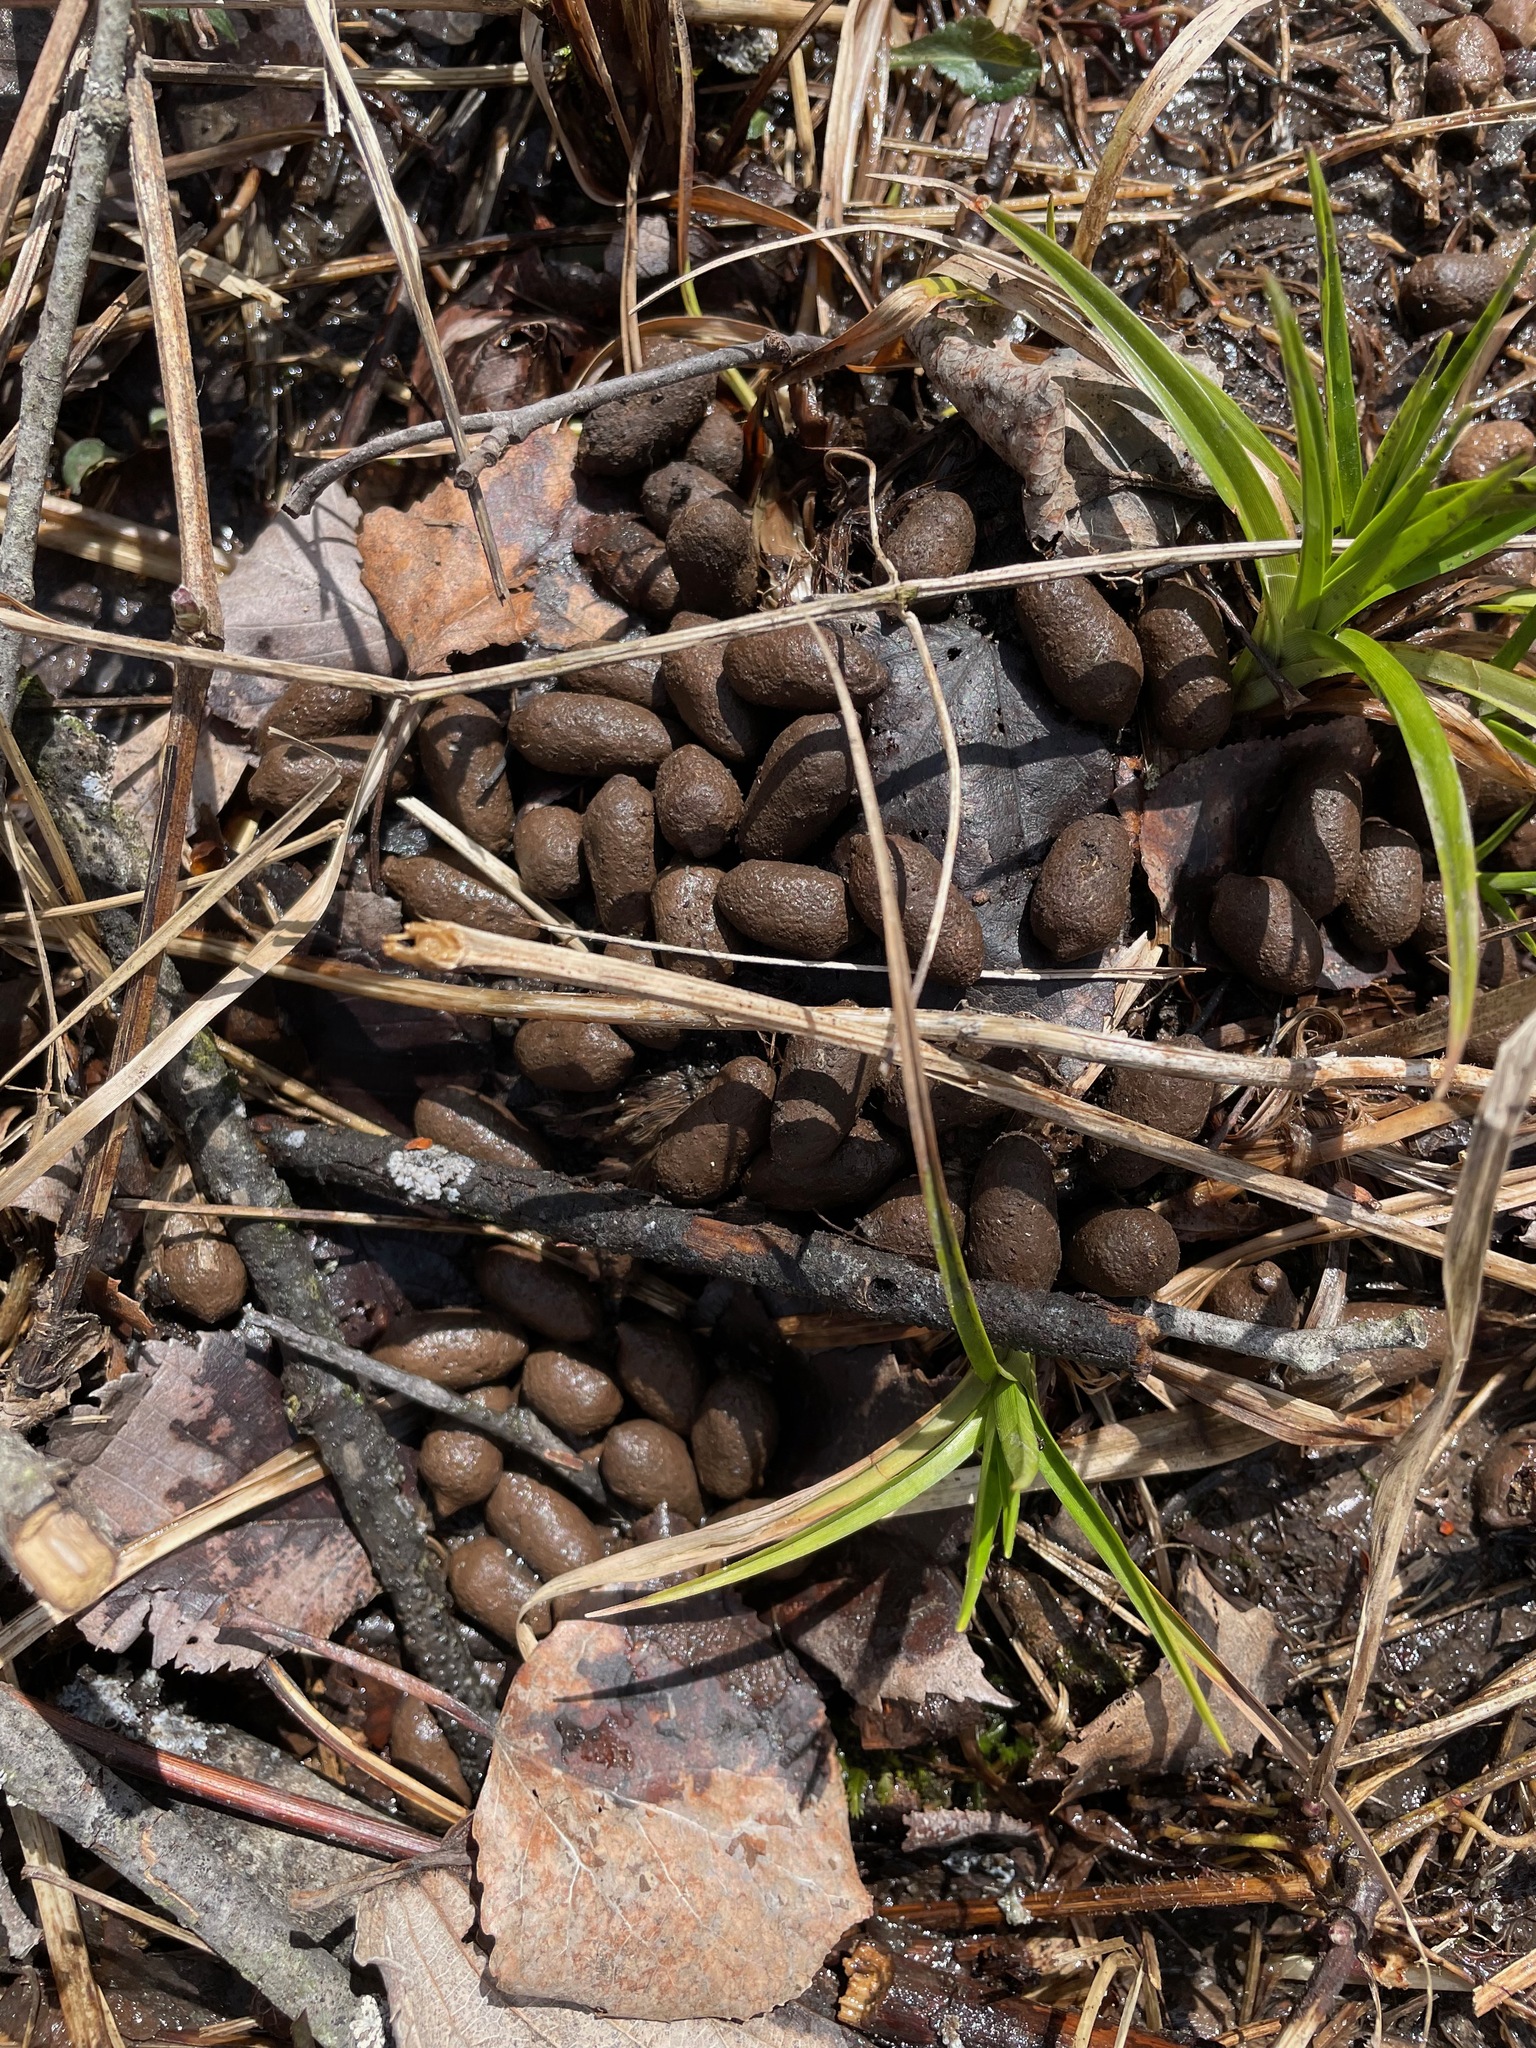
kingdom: Animalia
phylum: Chordata
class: Mammalia
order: Artiodactyla
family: Cervidae
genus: Odocoileus
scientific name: Odocoileus virginianus
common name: White-tailed deer
